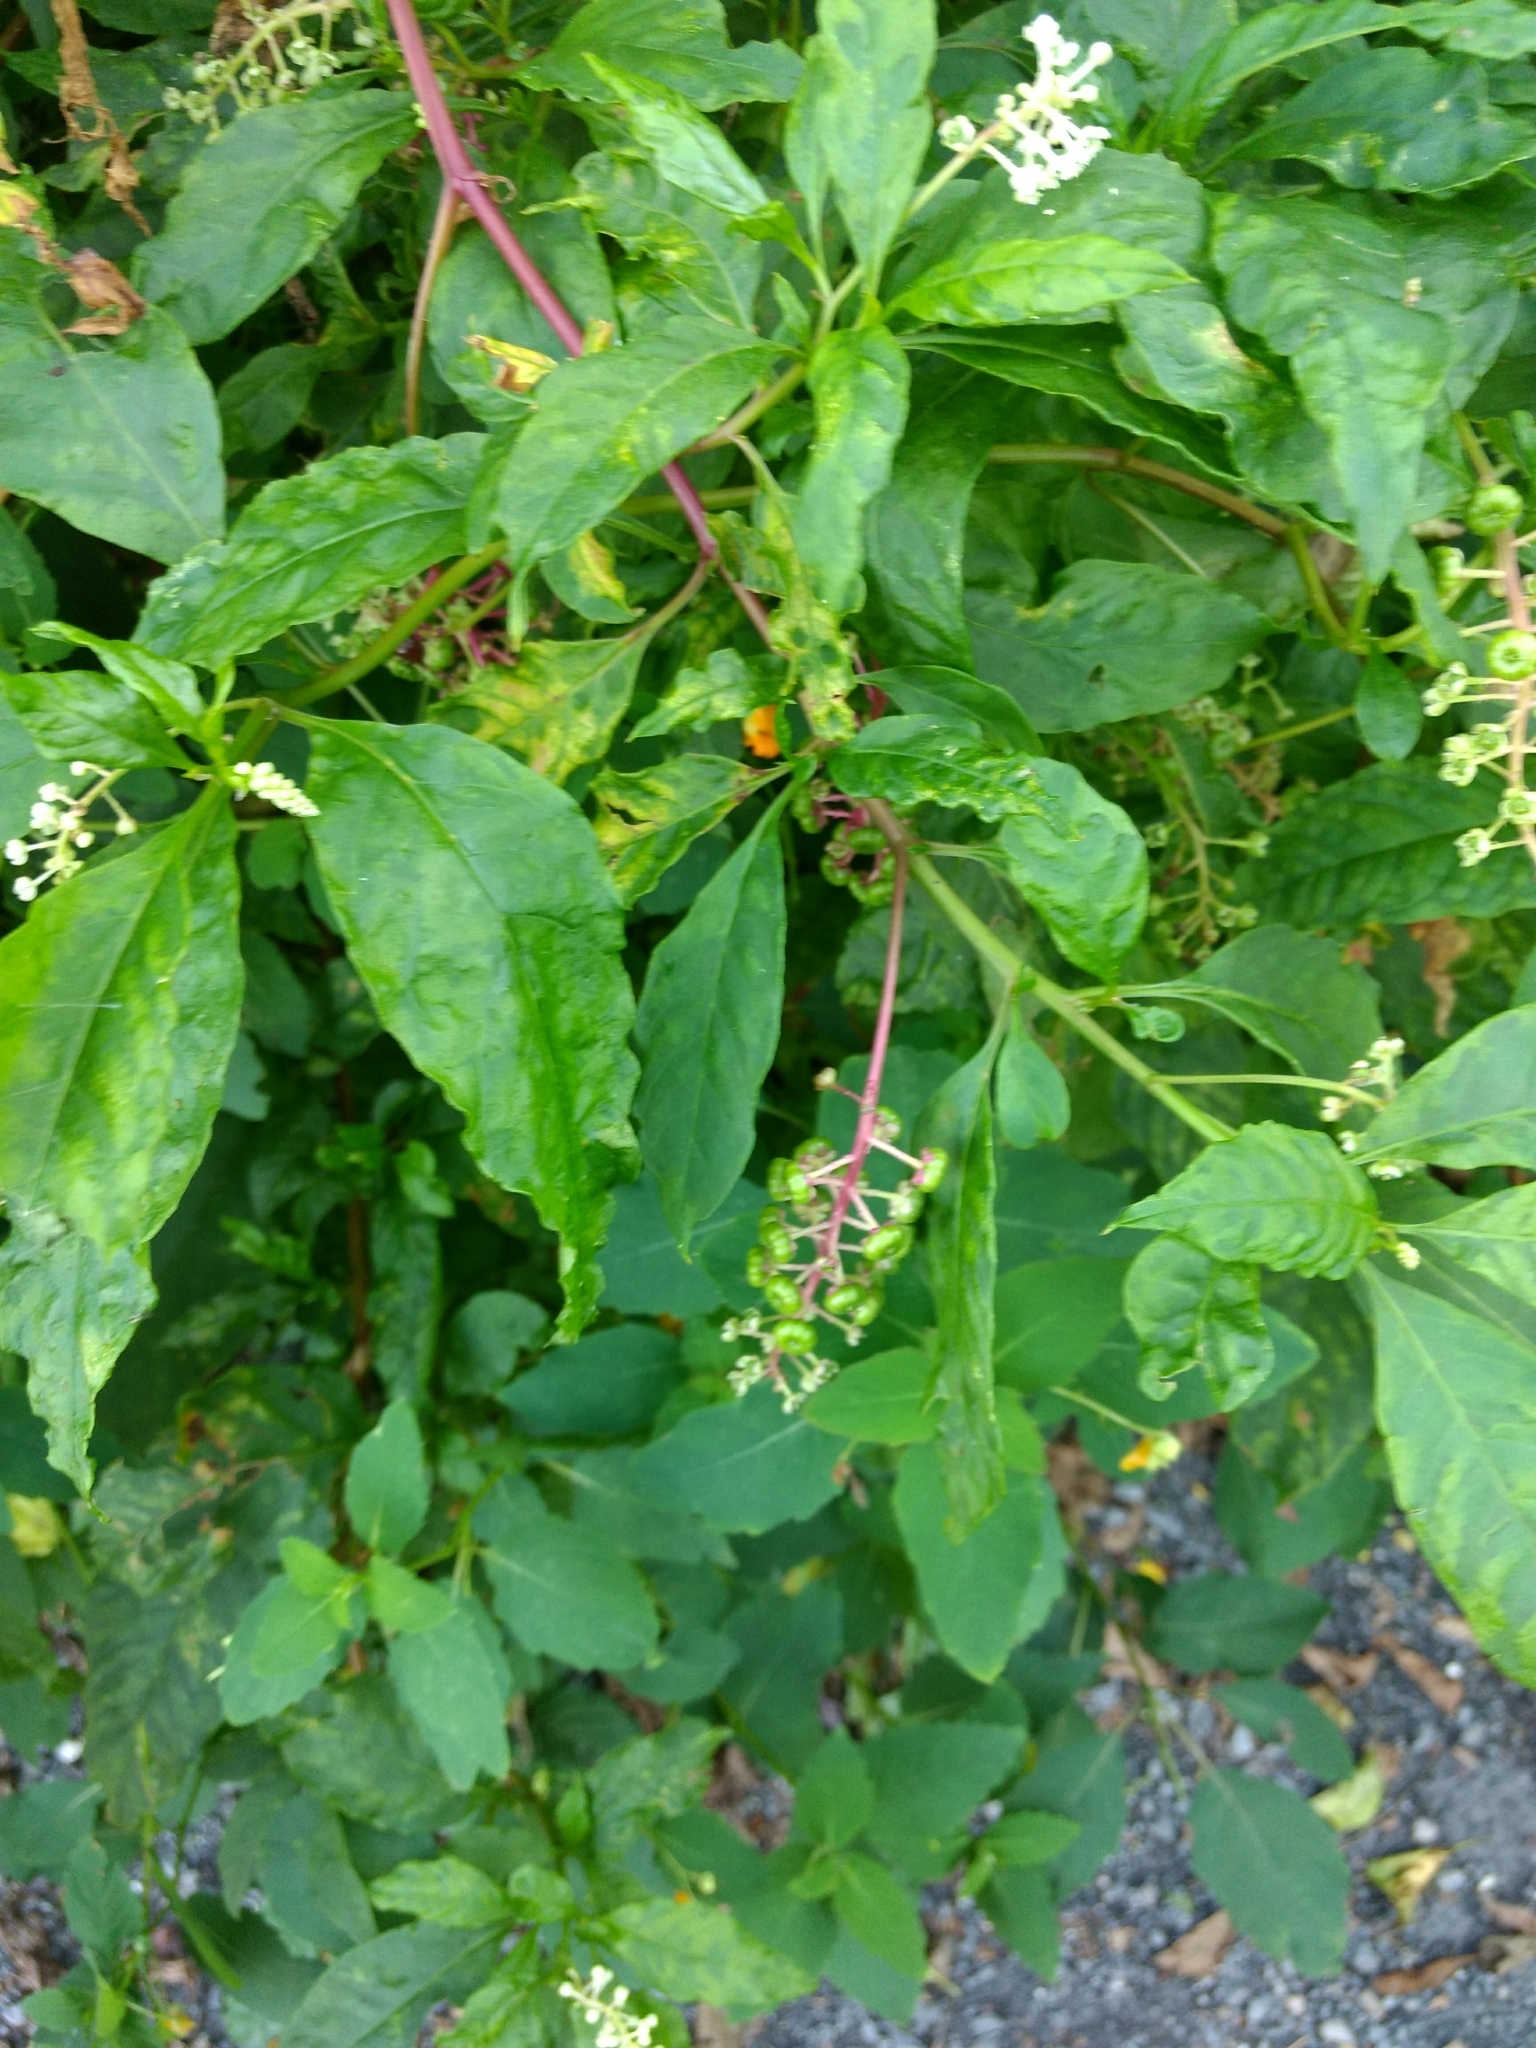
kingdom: Plantae
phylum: Tracheophyta
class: Magnoliopsida
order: Caryophyllales
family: Phytolaccaceae
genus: Phytolacca
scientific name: Phytolacca americana
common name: American pokeweed
